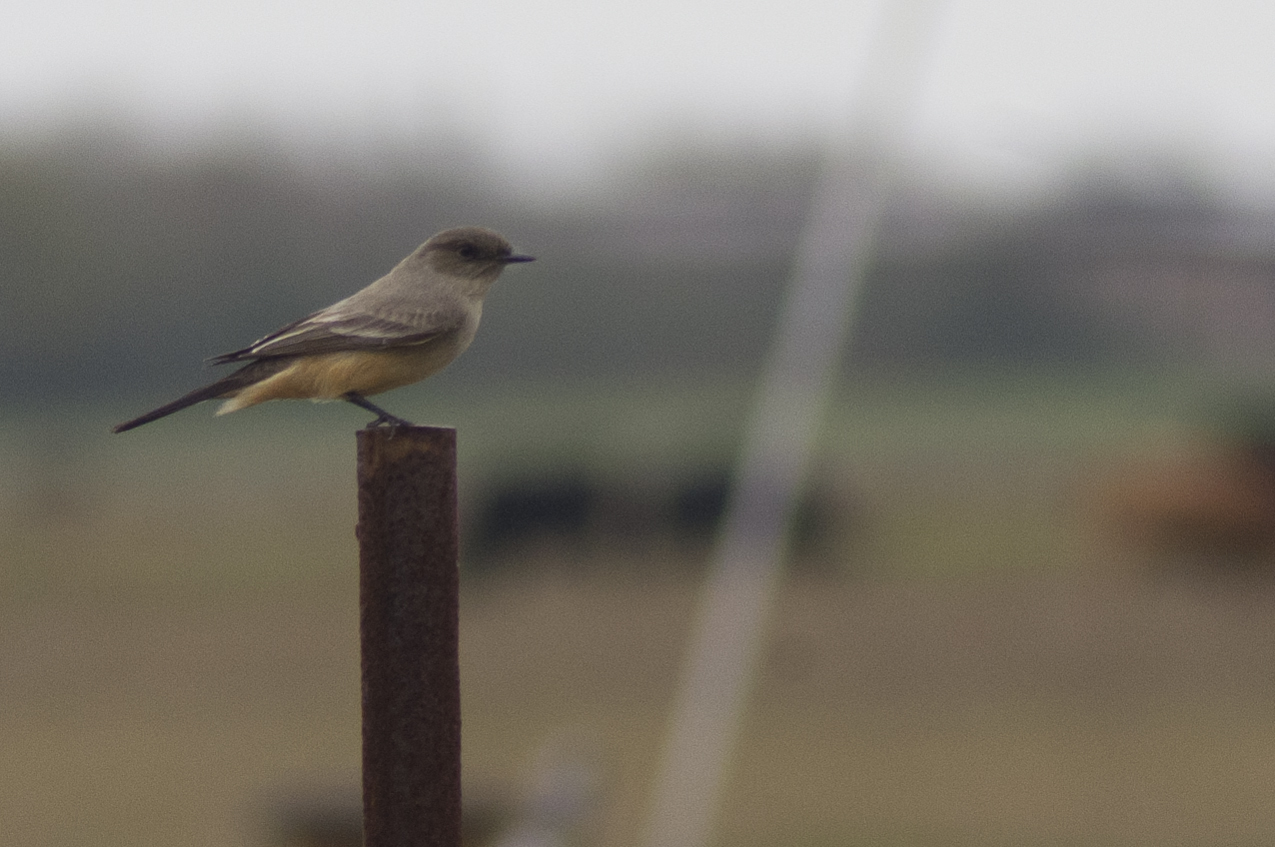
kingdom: Animalia
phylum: Chordata
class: Aves
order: Passeriformes
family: Tyrannidae
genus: Sayornis
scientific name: Sayornis saya
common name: Say's phoebe
